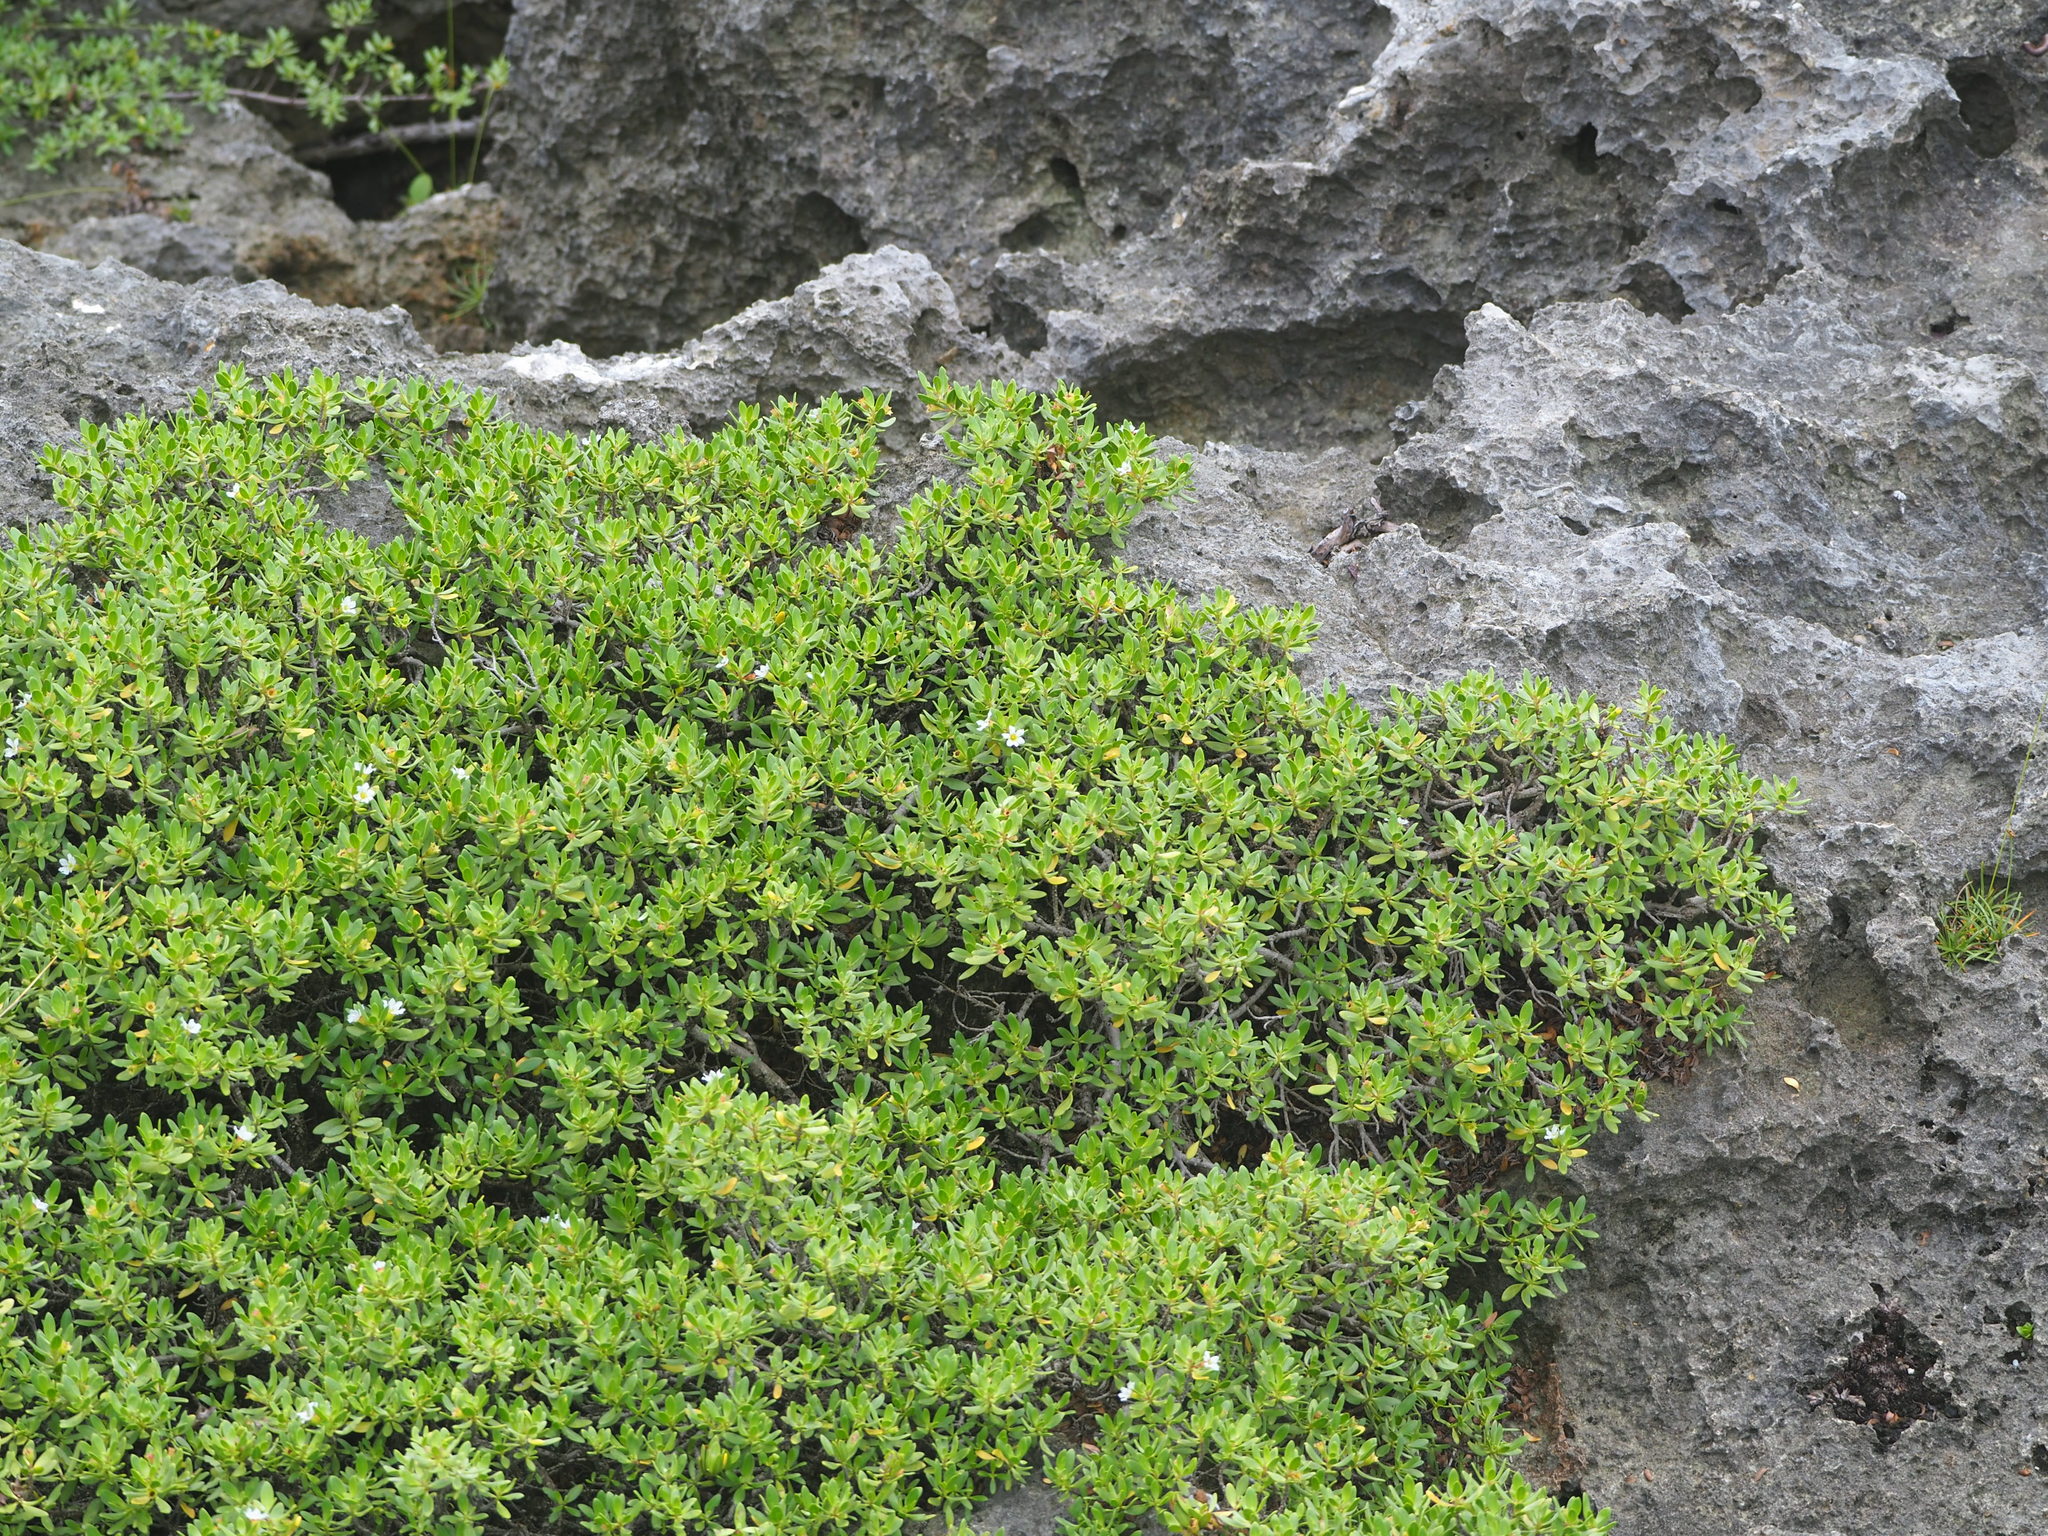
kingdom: Plantae
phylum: Tracheophyta
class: Magnoliopsida
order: Myrtales
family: Lythraceae
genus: Pemphis
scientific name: Pemphis acidula
